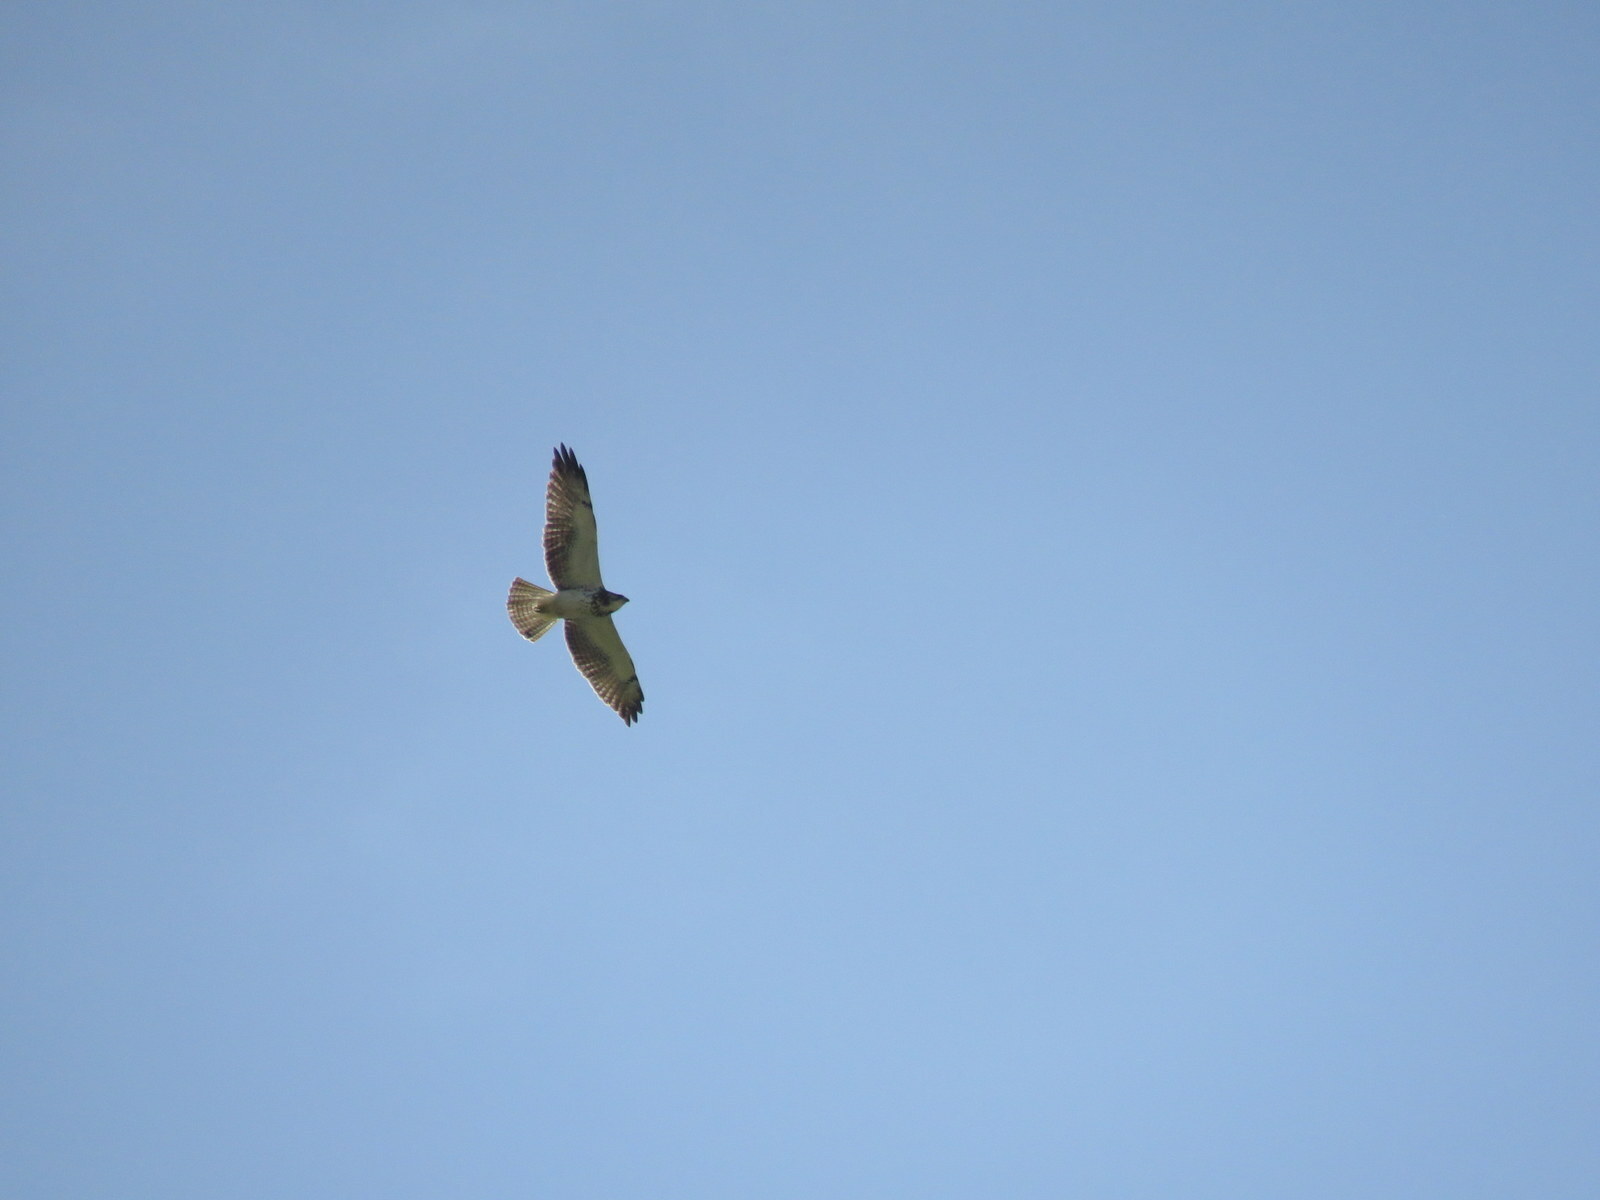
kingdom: Animalia
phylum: Chordata
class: Aves
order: Accipitriformes
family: Accipitridae
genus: Buteo
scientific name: Buteo swainsoni
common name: Swainson's hawk
